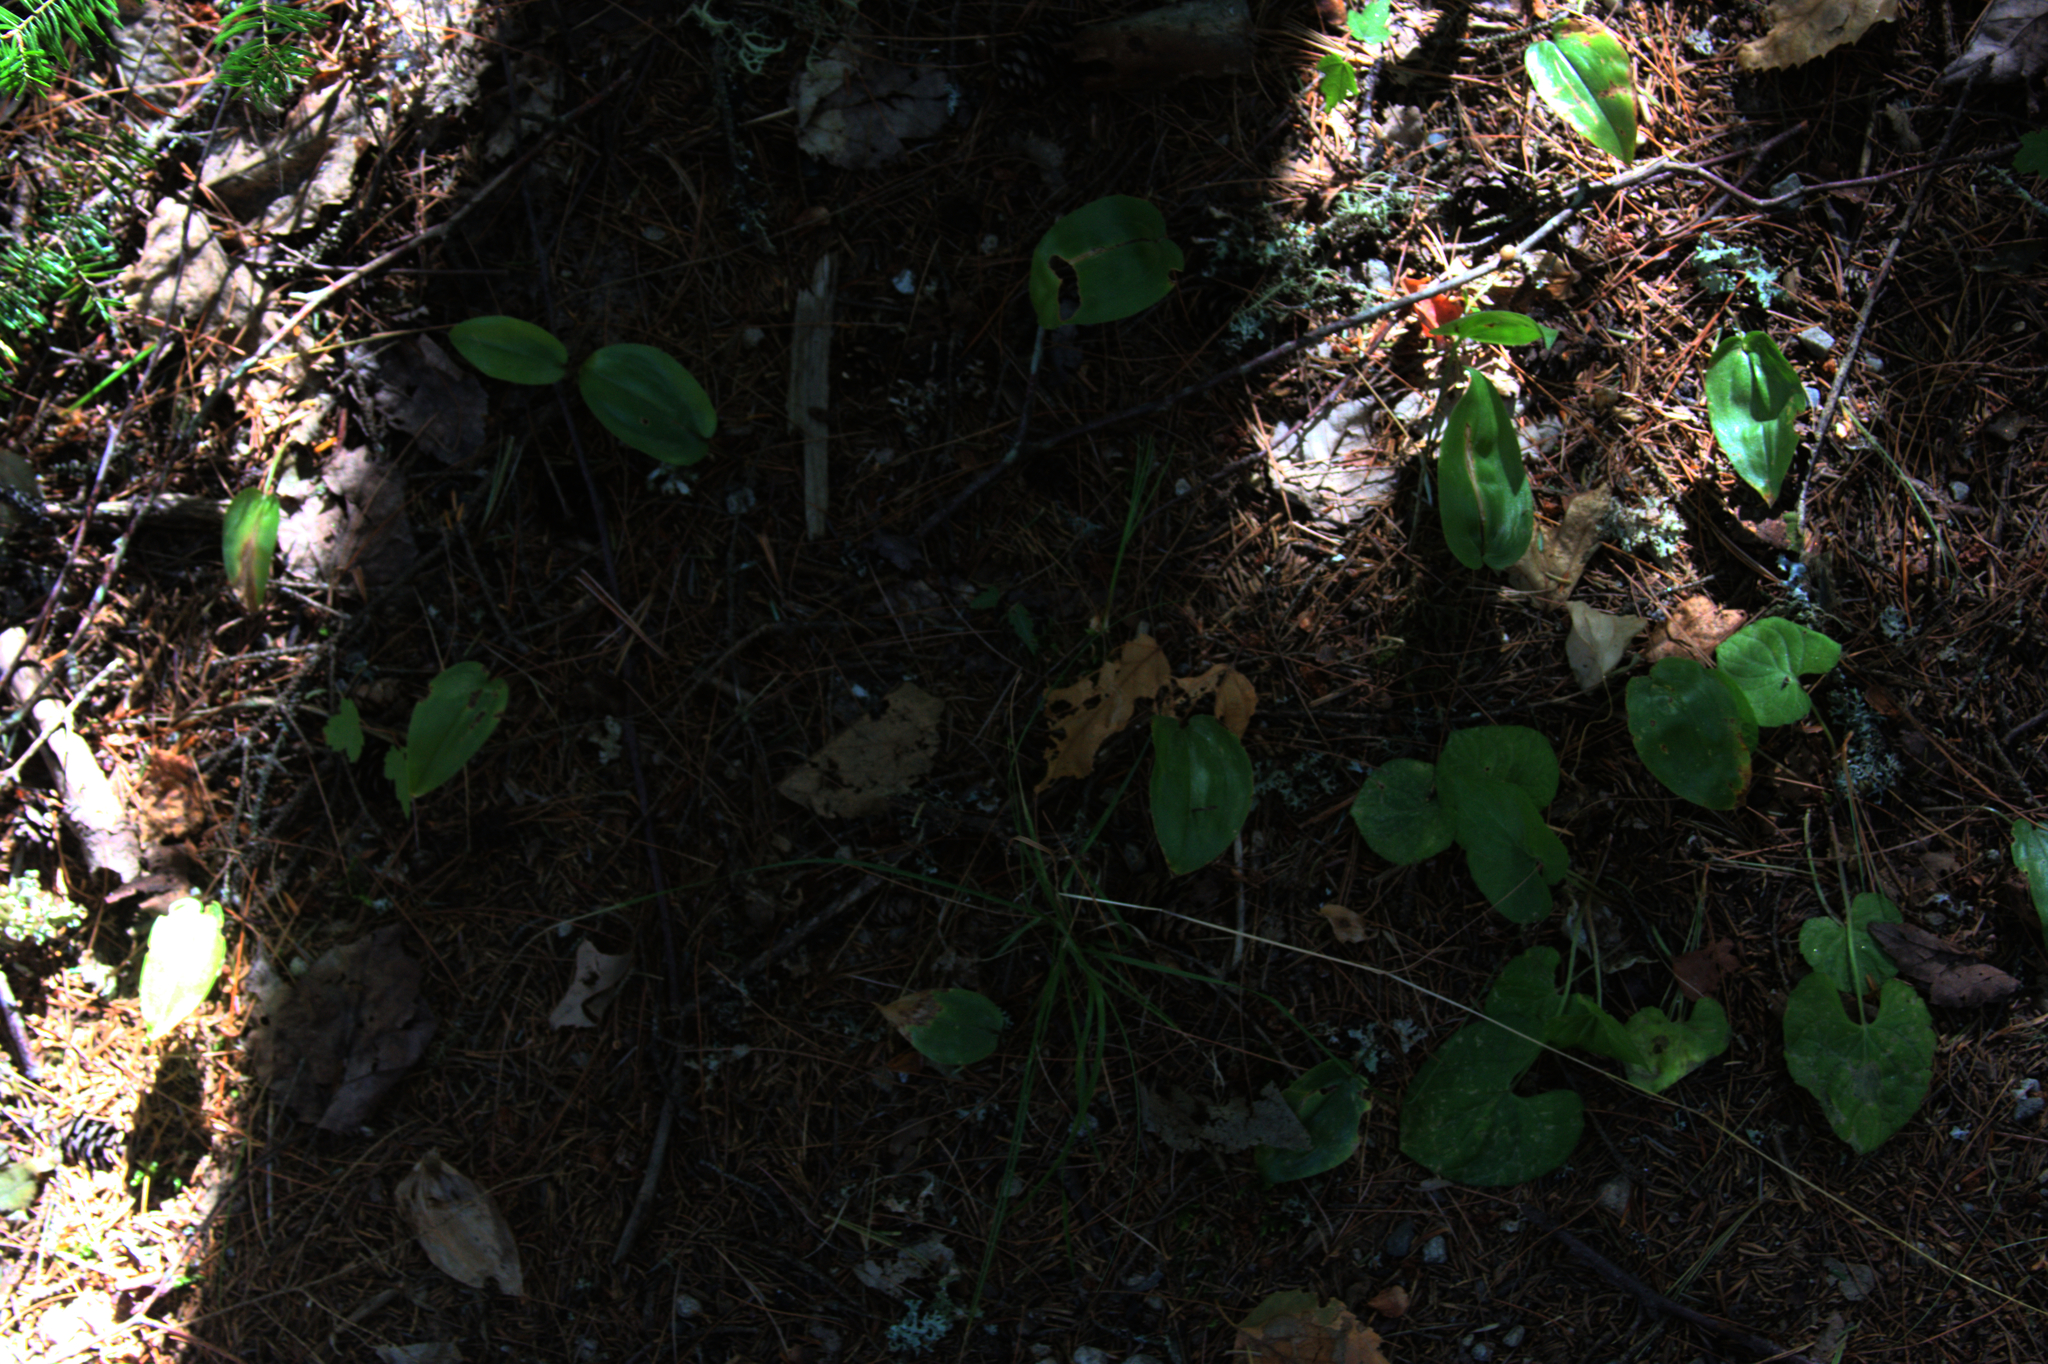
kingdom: Plantae
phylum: Tracheophyta
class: Liliopsida
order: Asparagales
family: Asparagaceae
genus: Maianthemum
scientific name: Maianthemum canadense
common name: False lily-of-the-valley
